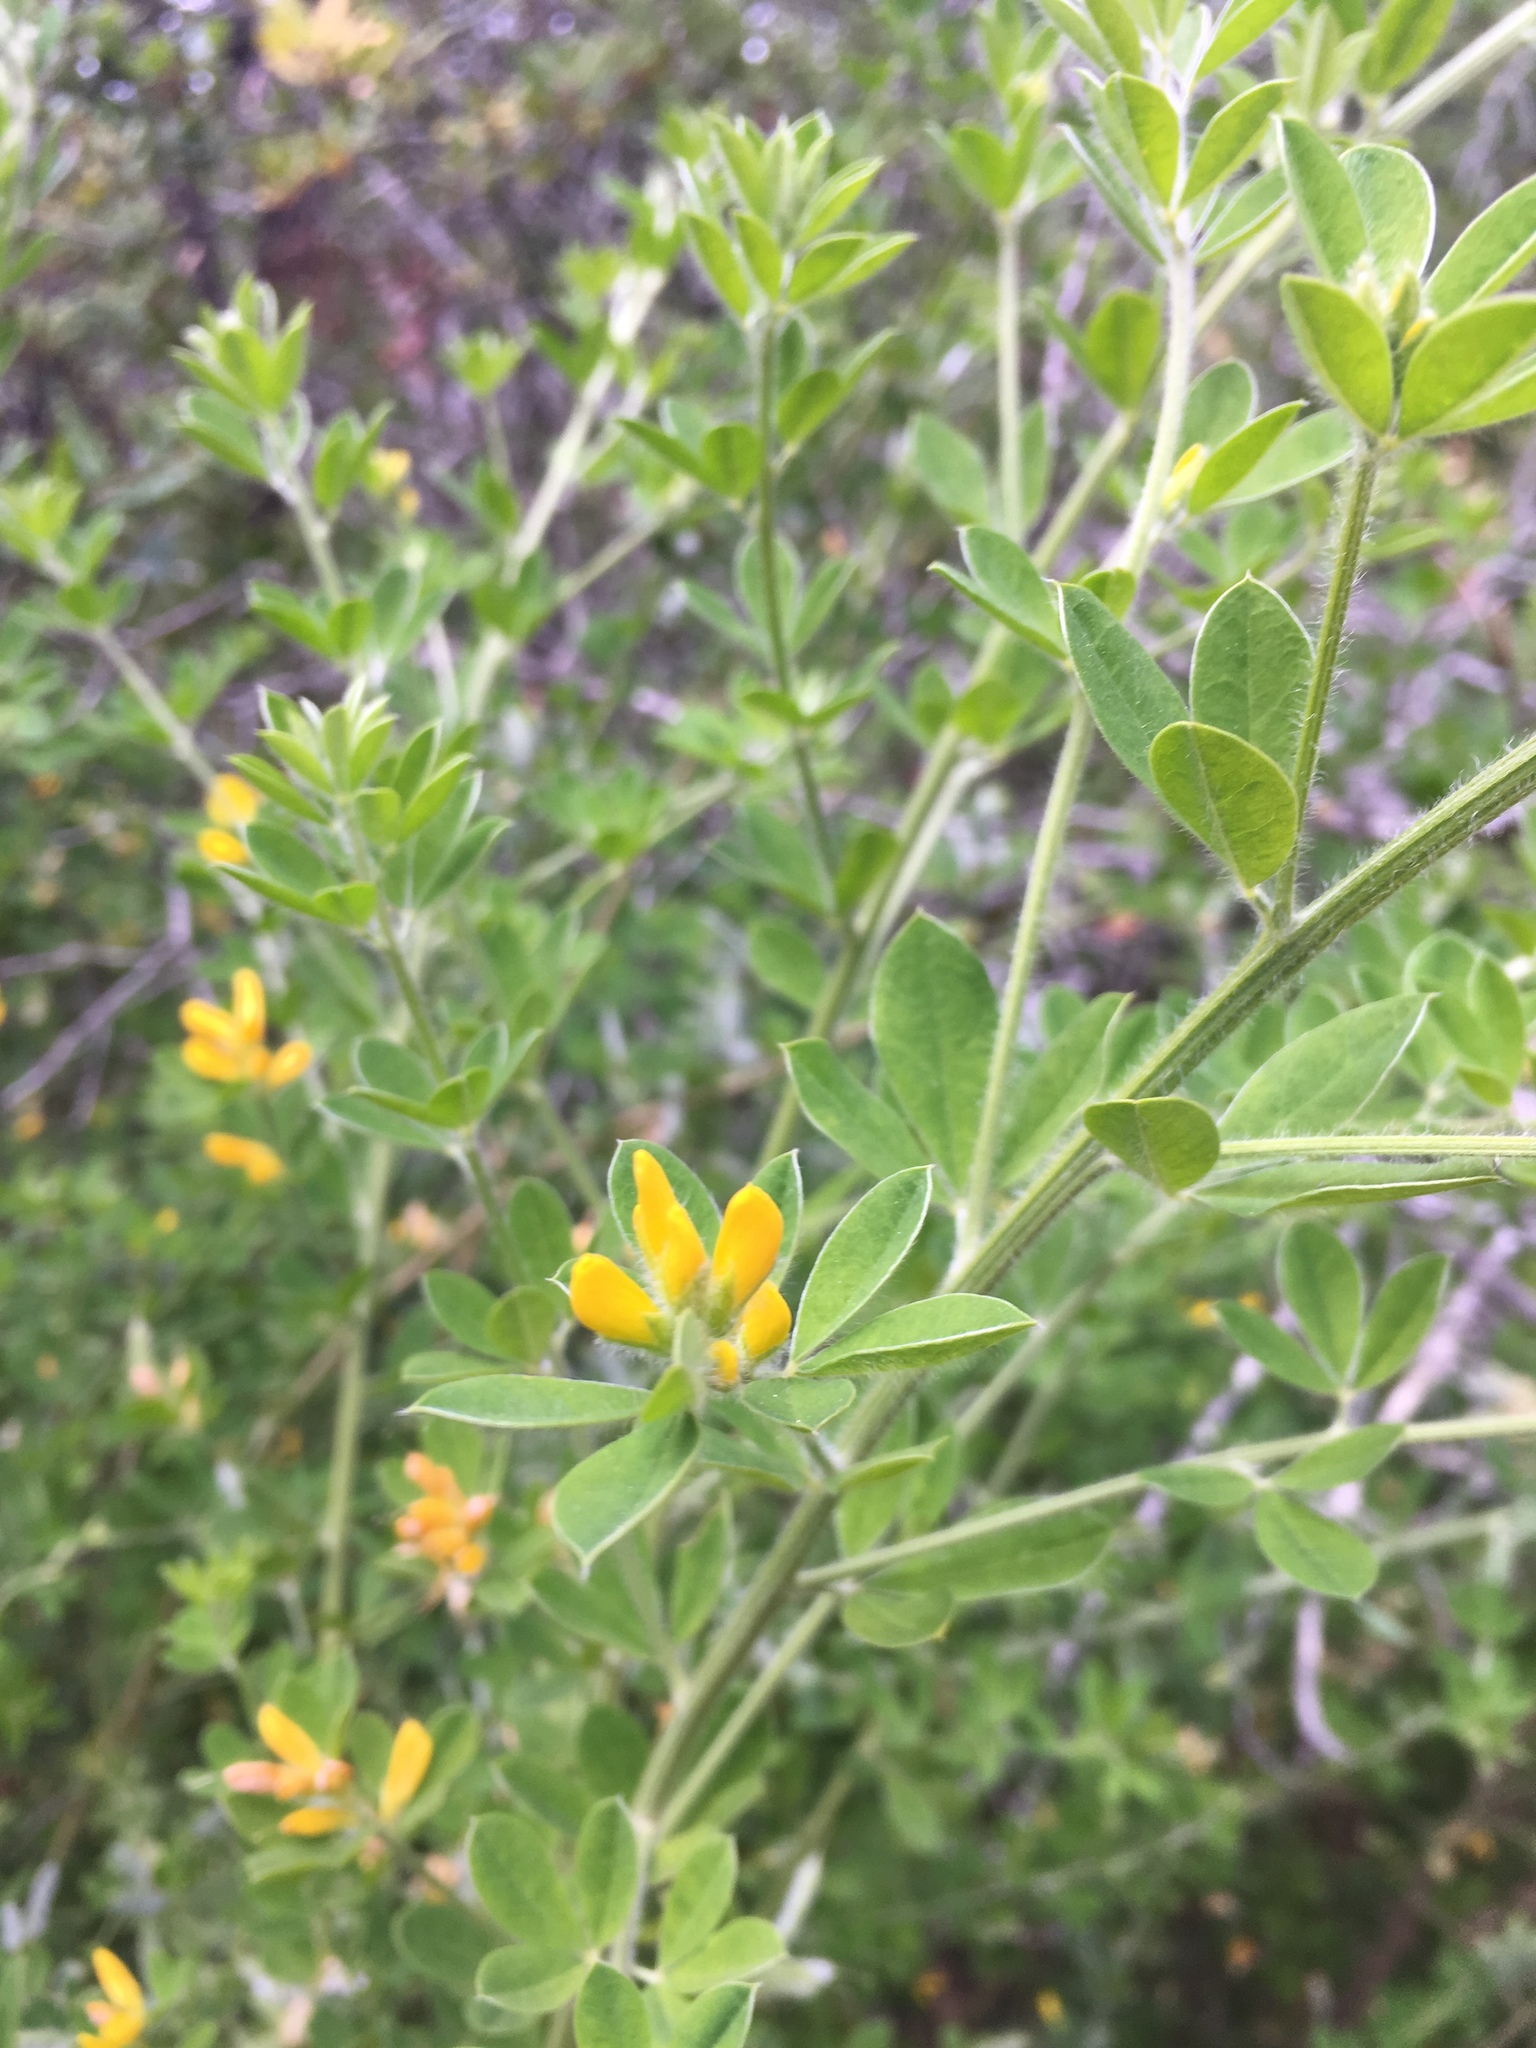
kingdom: Plantae
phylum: Tracheophyta
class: Magnoliopsida
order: Fabales
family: Fabaceae
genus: Genista
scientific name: Genista monspessulana
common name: Montpellier broom
